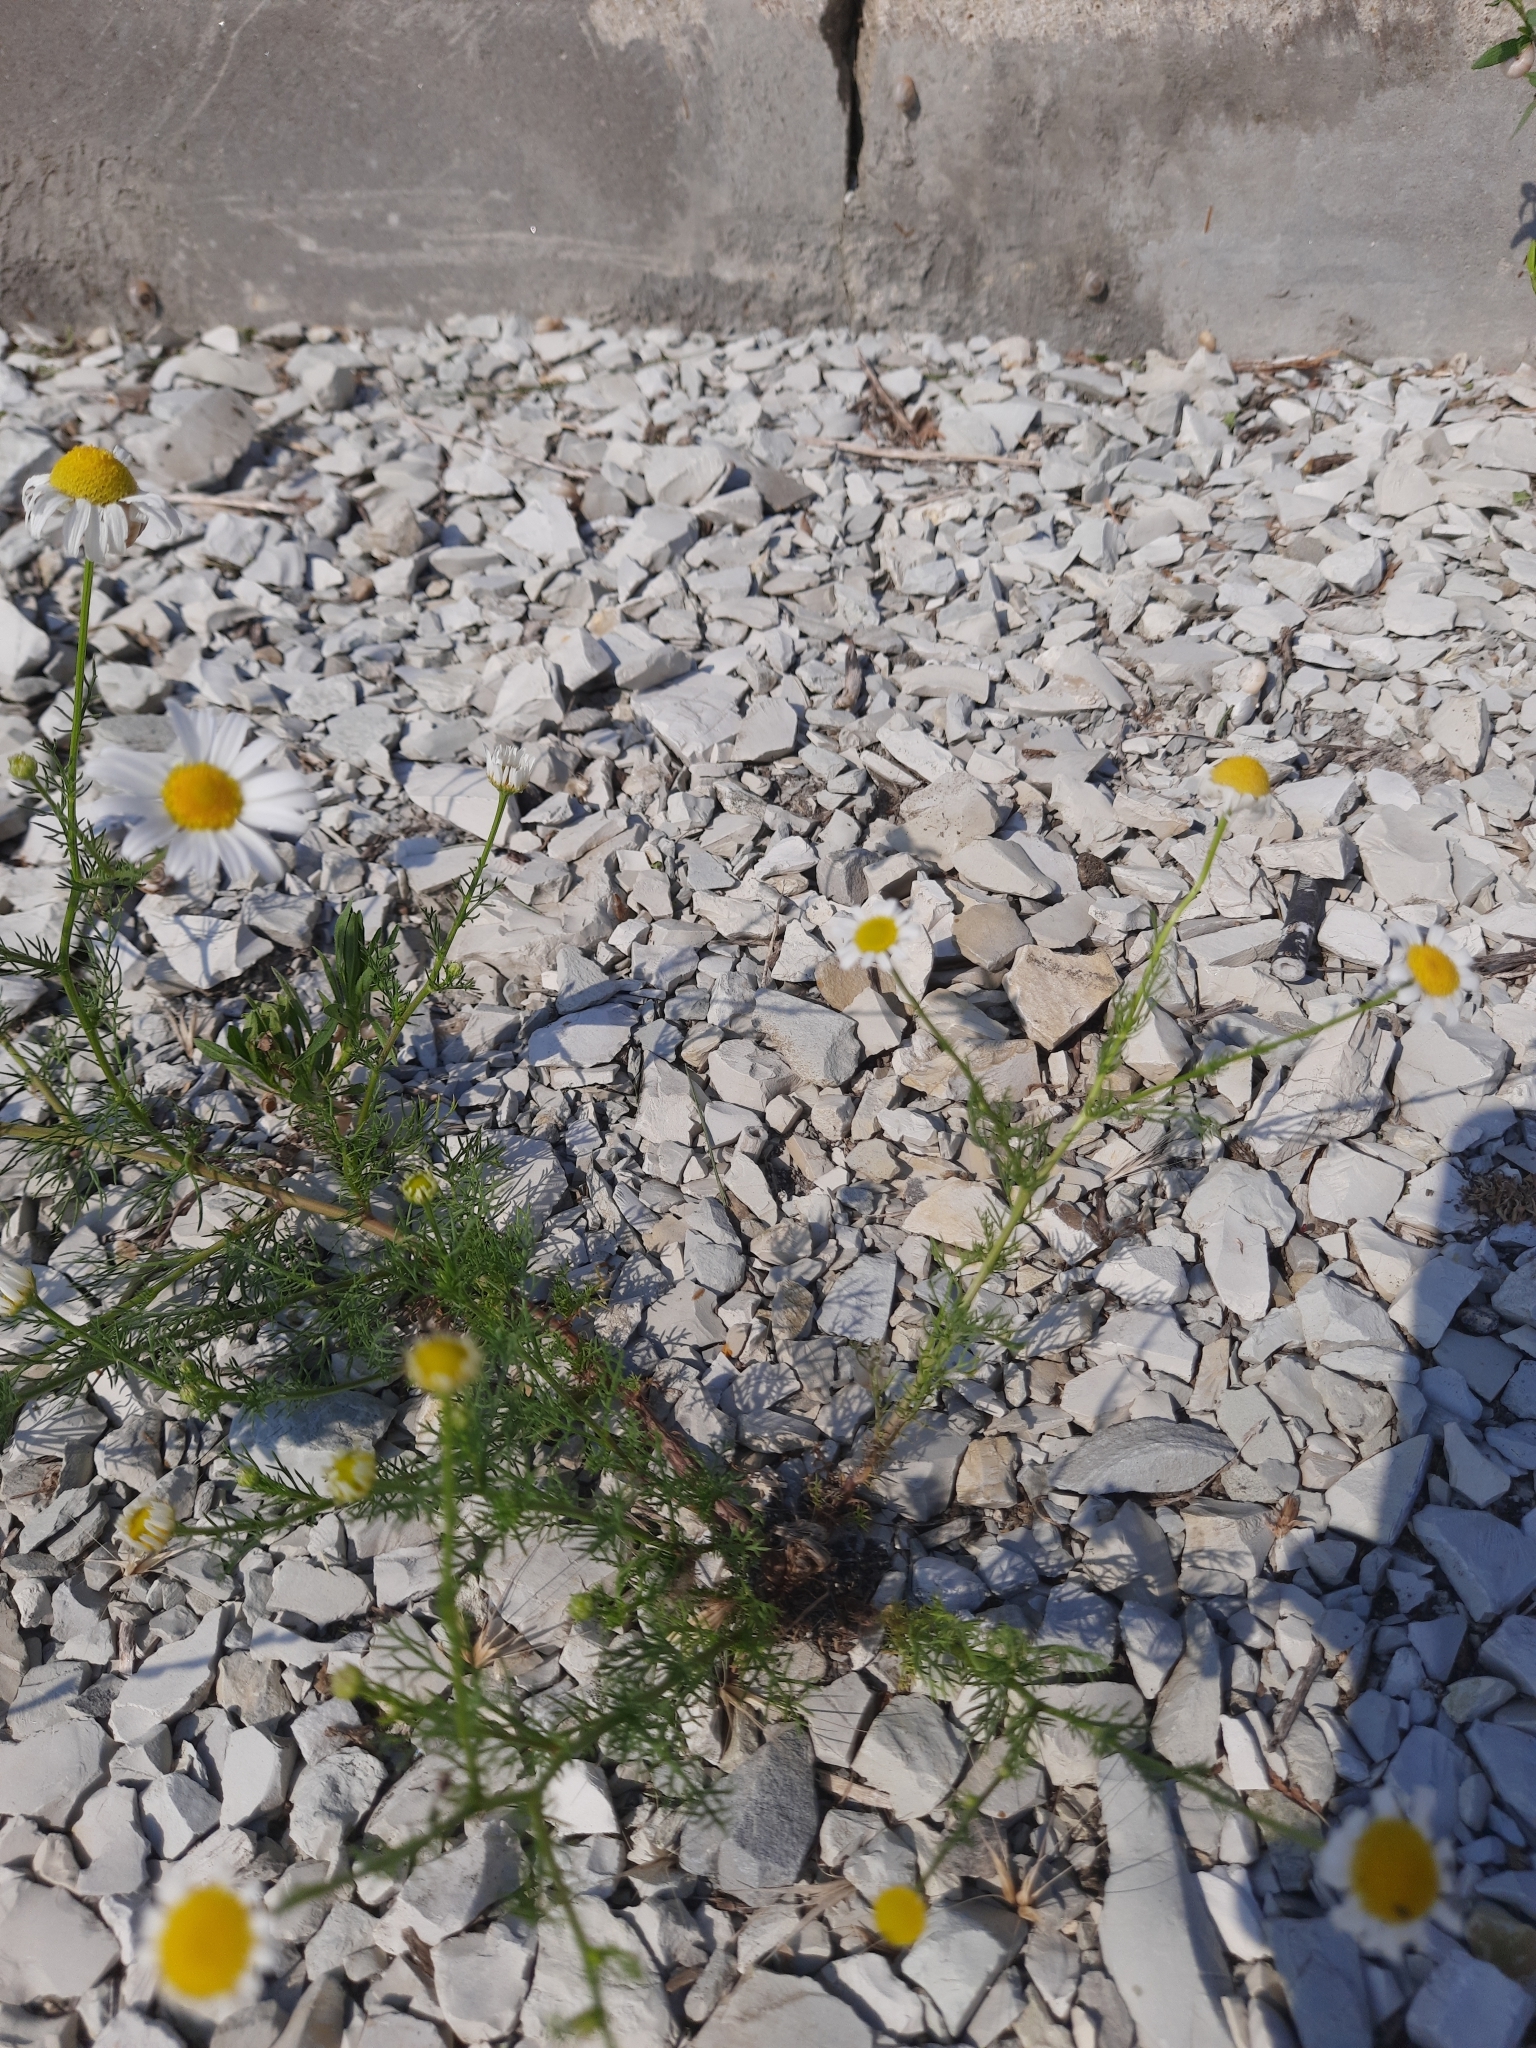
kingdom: Plantae
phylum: Tracheophyta
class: Magnoliopsida
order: Asterales
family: Asteraceae
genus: Tripleurospermum
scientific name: Tripleurospermum inodorum
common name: Scentless mayweed
